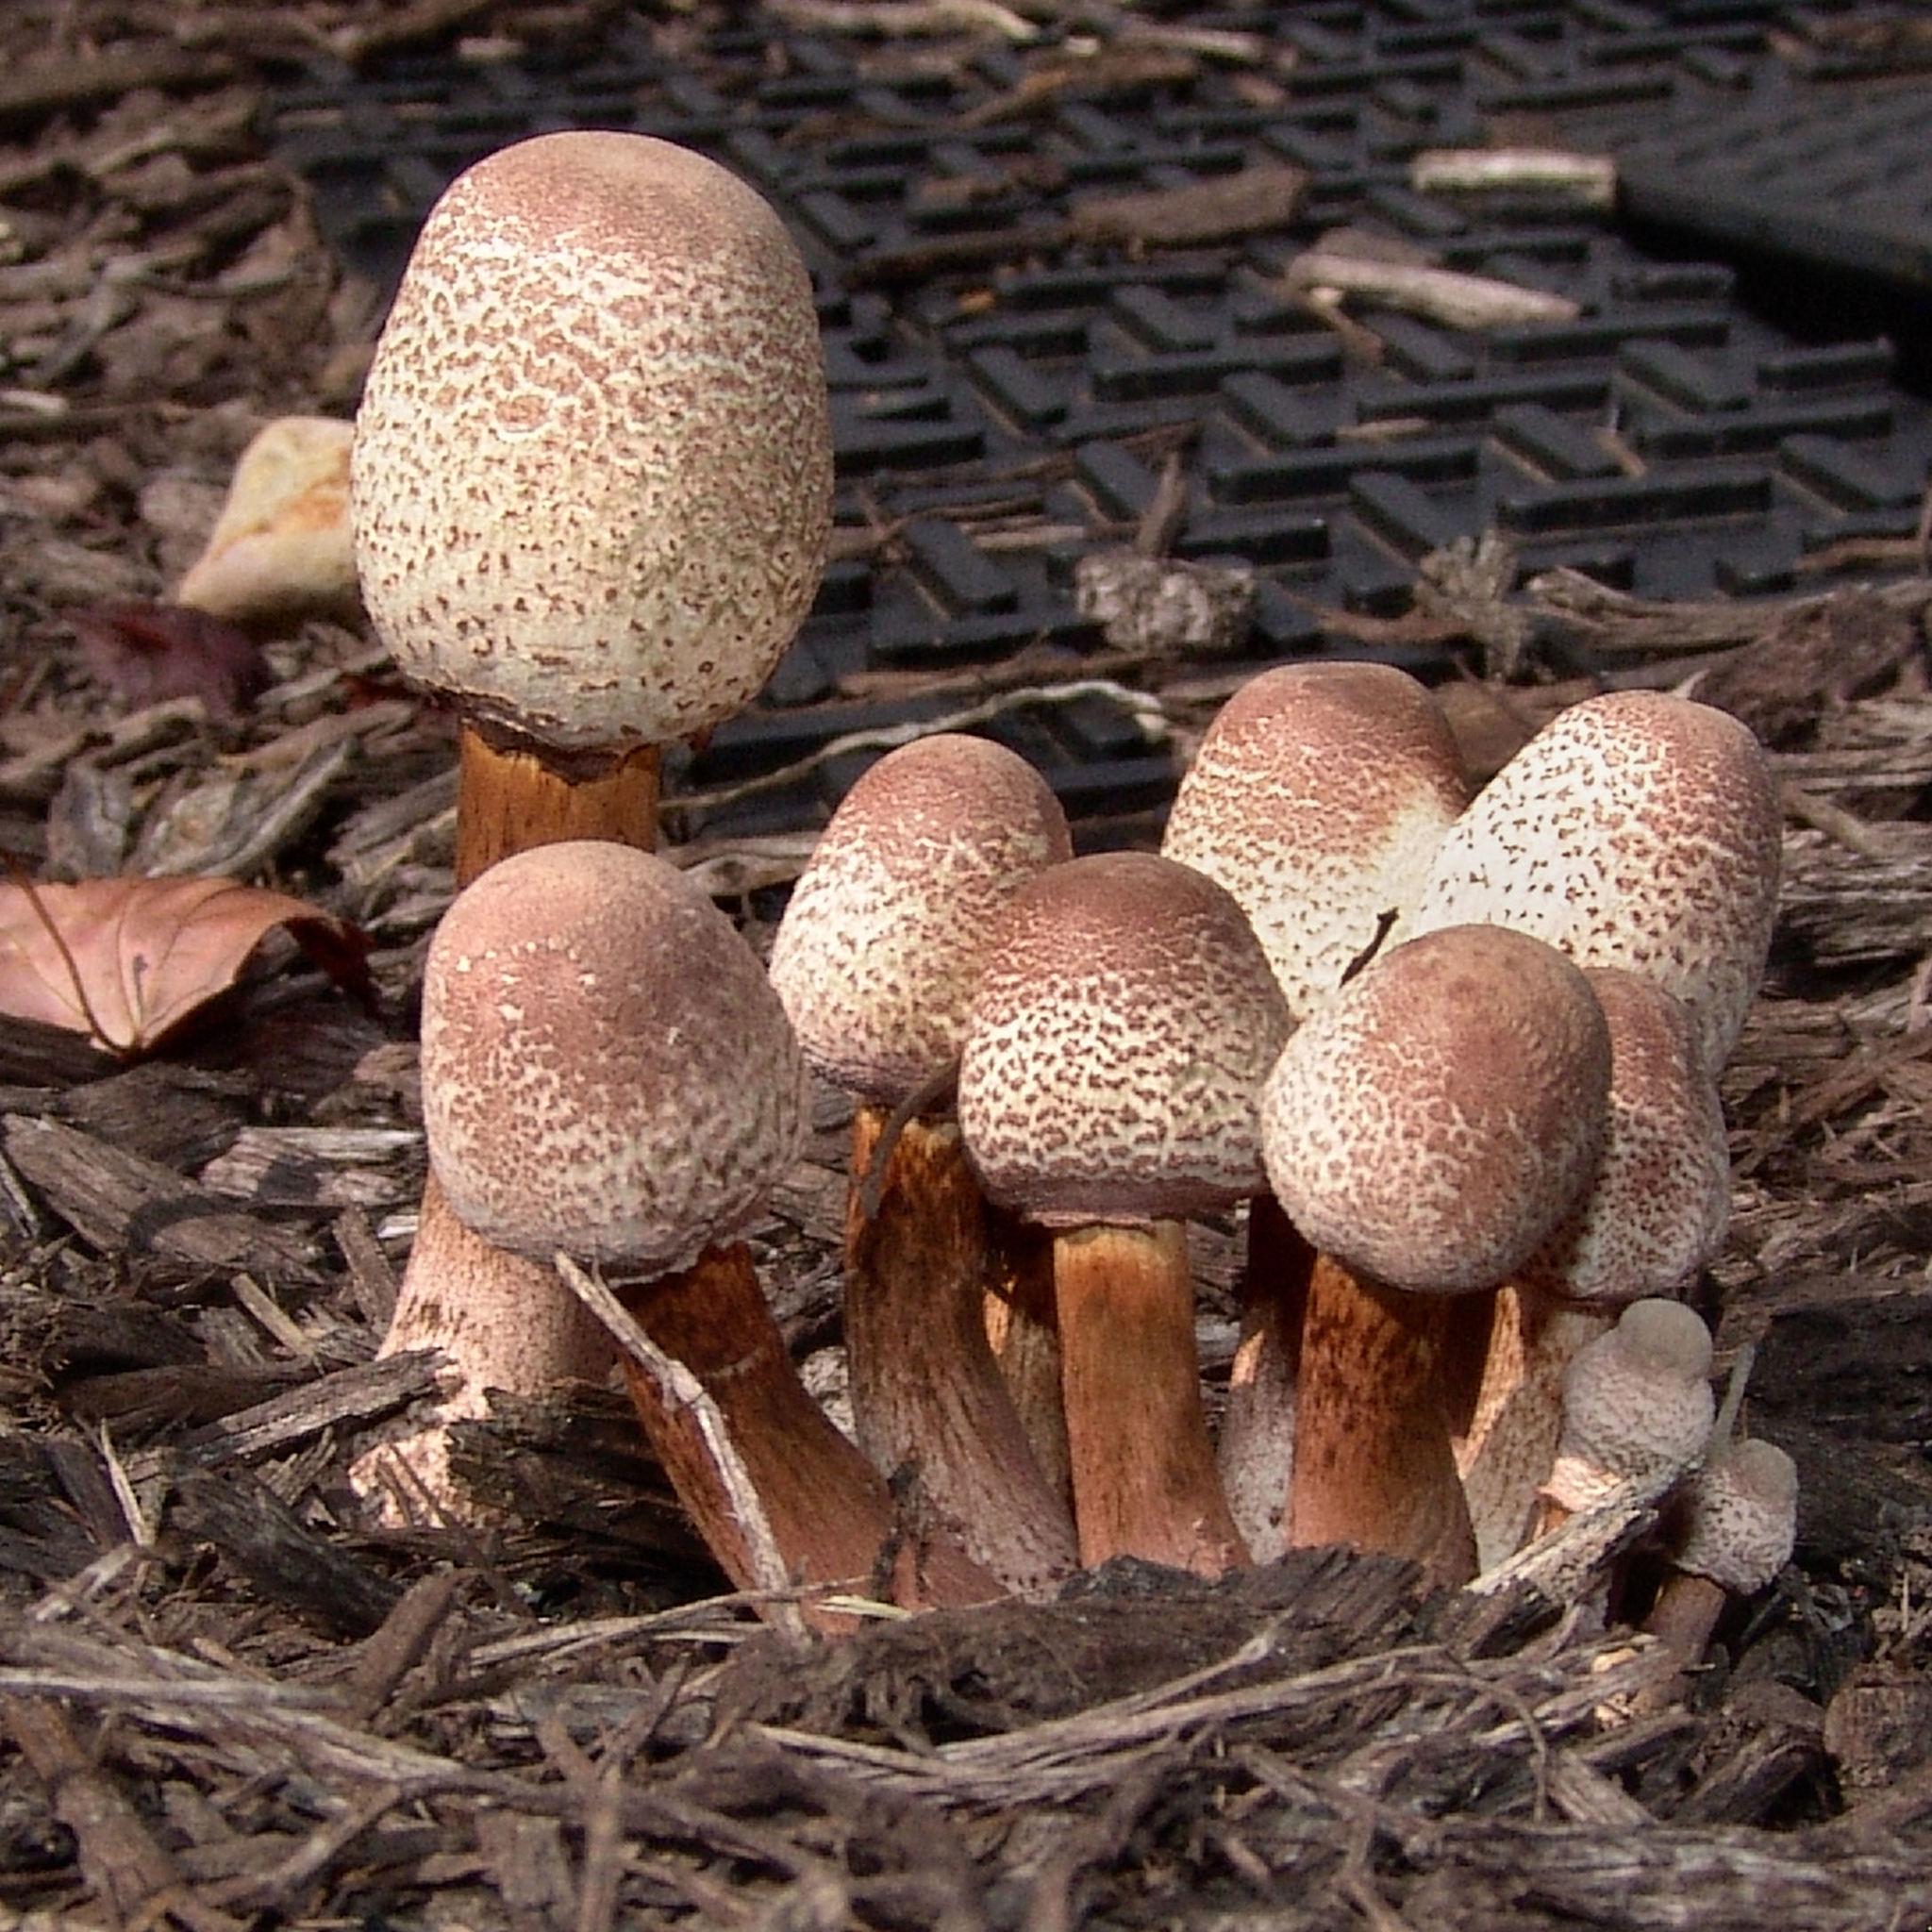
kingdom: Fungi
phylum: Basidiomycota
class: Agaricomycetes
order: Agaricales
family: Agaricaceae
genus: Leucoagaricus
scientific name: Leucoagaricus americanus
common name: Reddening lepiota
